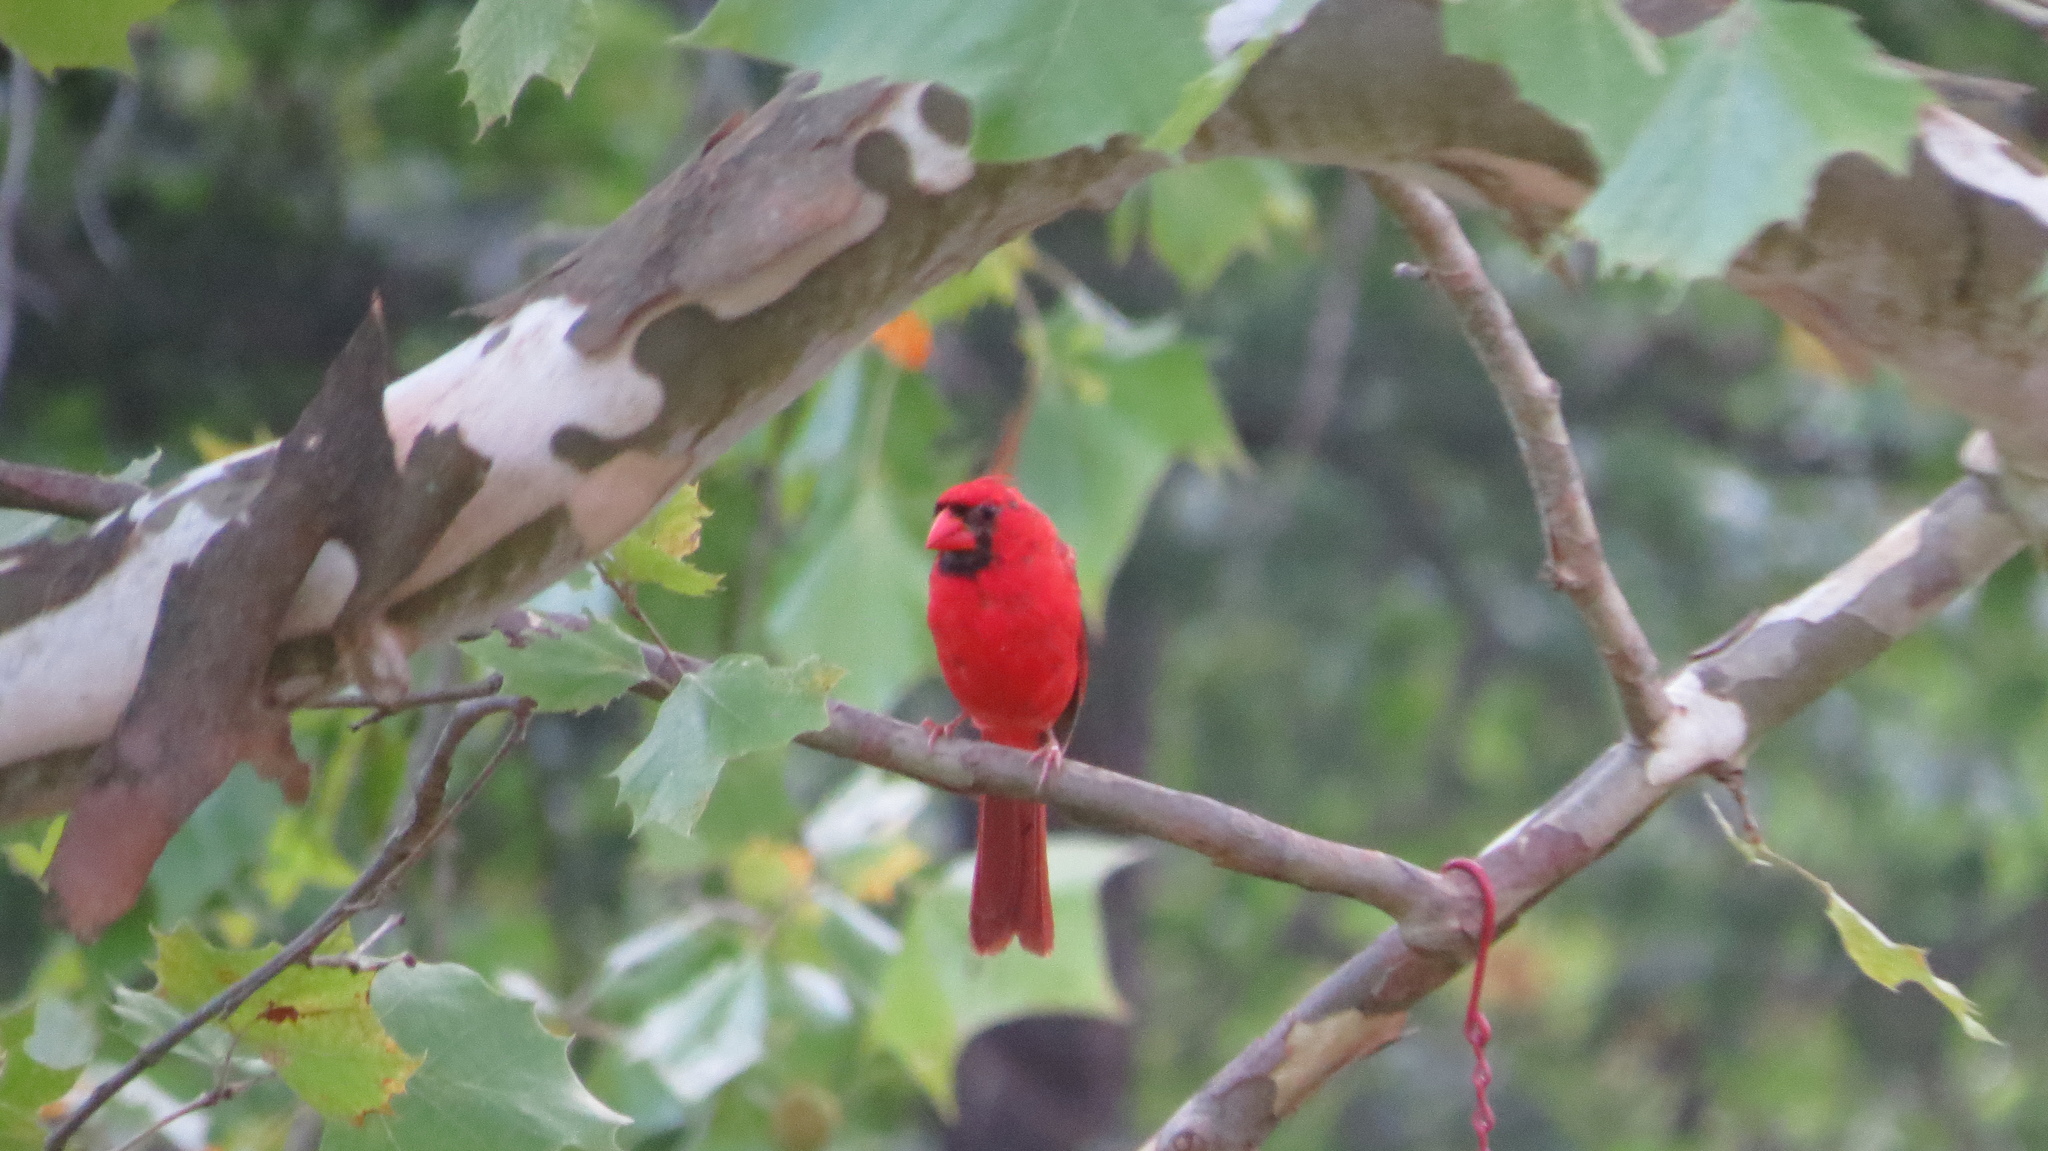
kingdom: Animalia
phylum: Chordata
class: Aves
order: Passeriformes
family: Cardinalidae
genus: Cardinalis
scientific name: Cardinalis cardinalis
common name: Northern cardinal
